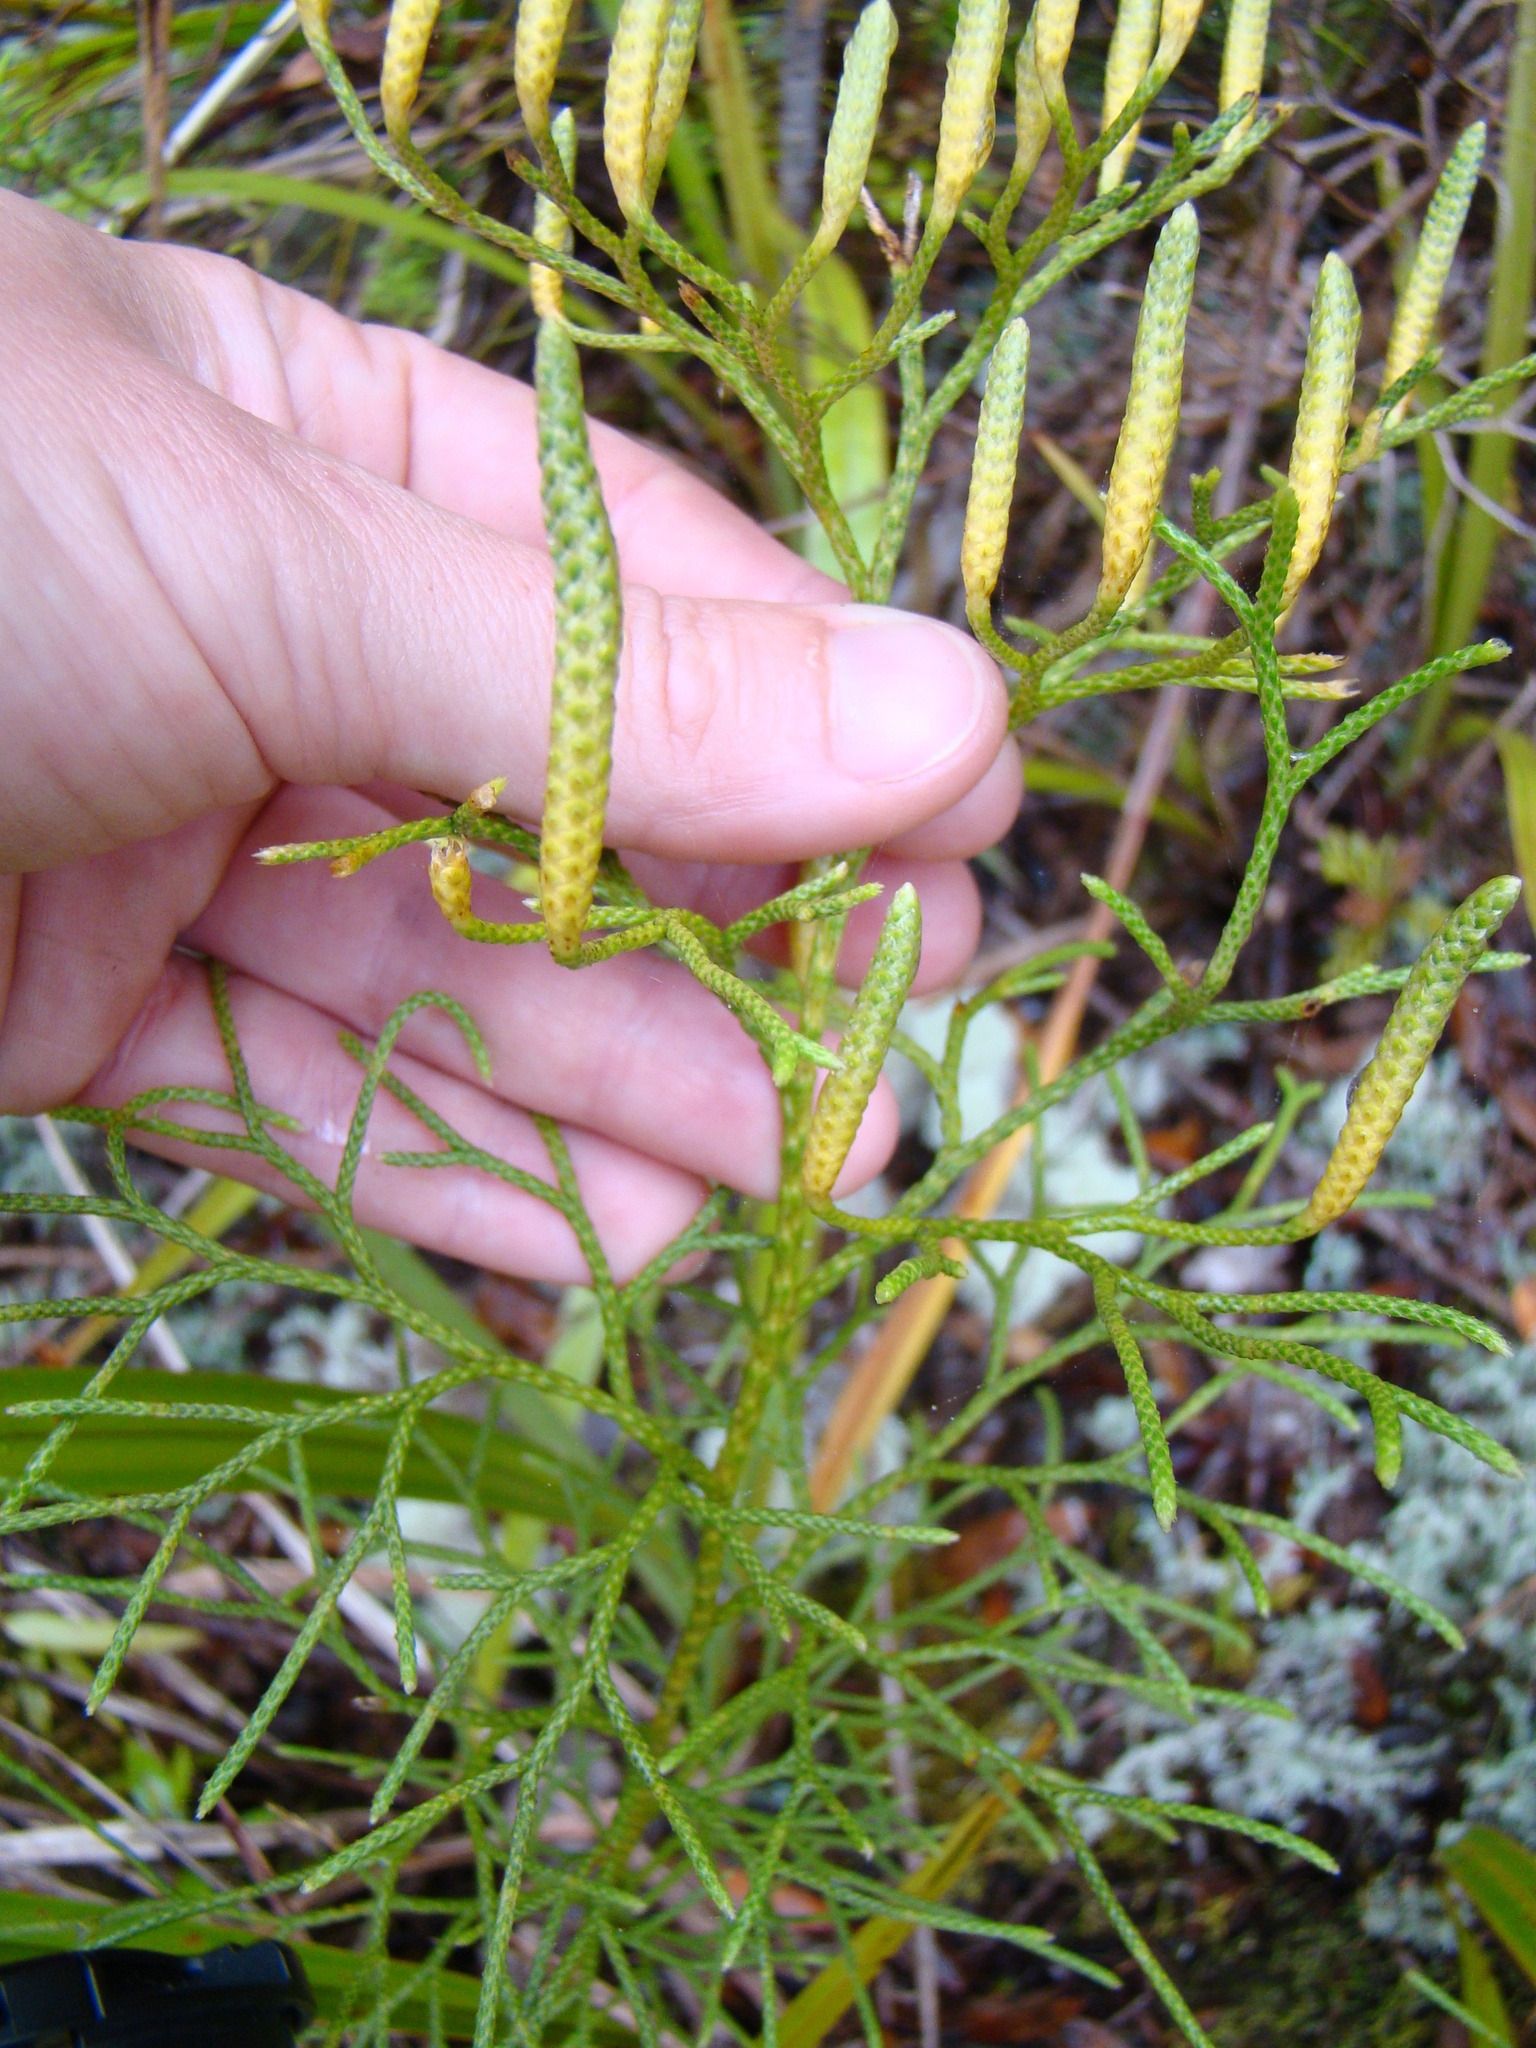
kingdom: Plantae
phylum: Tracheophyta
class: Lycopodiopsida
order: Lycopodiales
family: Lycopodiaceae
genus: Pseudolycopodium
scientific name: Pseudolycopodium densum
